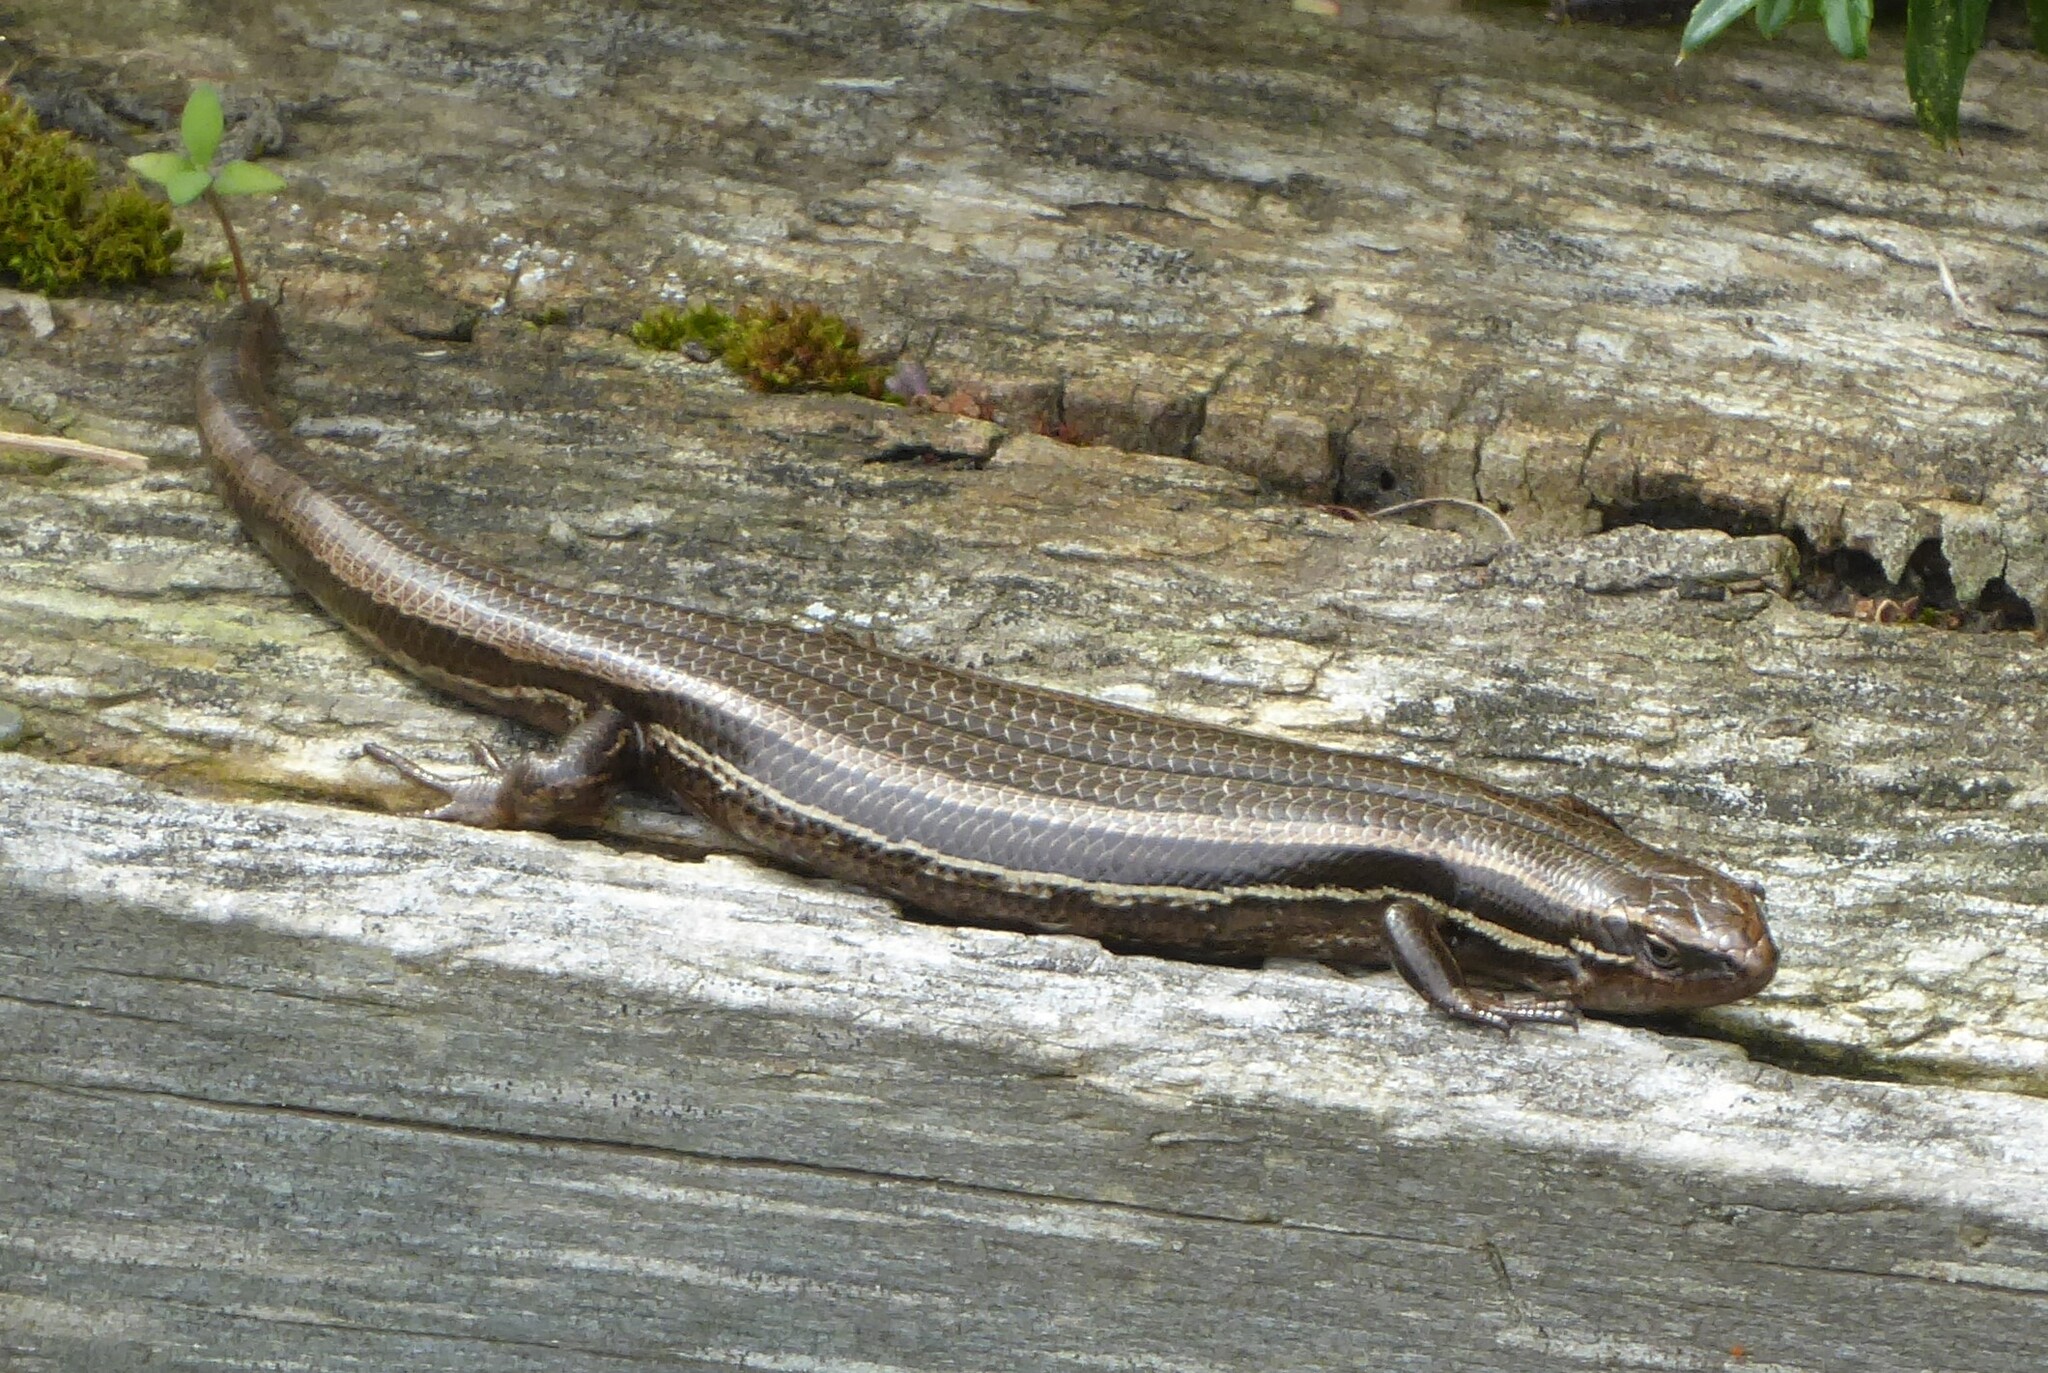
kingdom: Animalia
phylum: Chordata
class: Squamata
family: Scincidae
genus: Oligosoma
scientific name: Oligosoma polychroma
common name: Common new zealand skink
